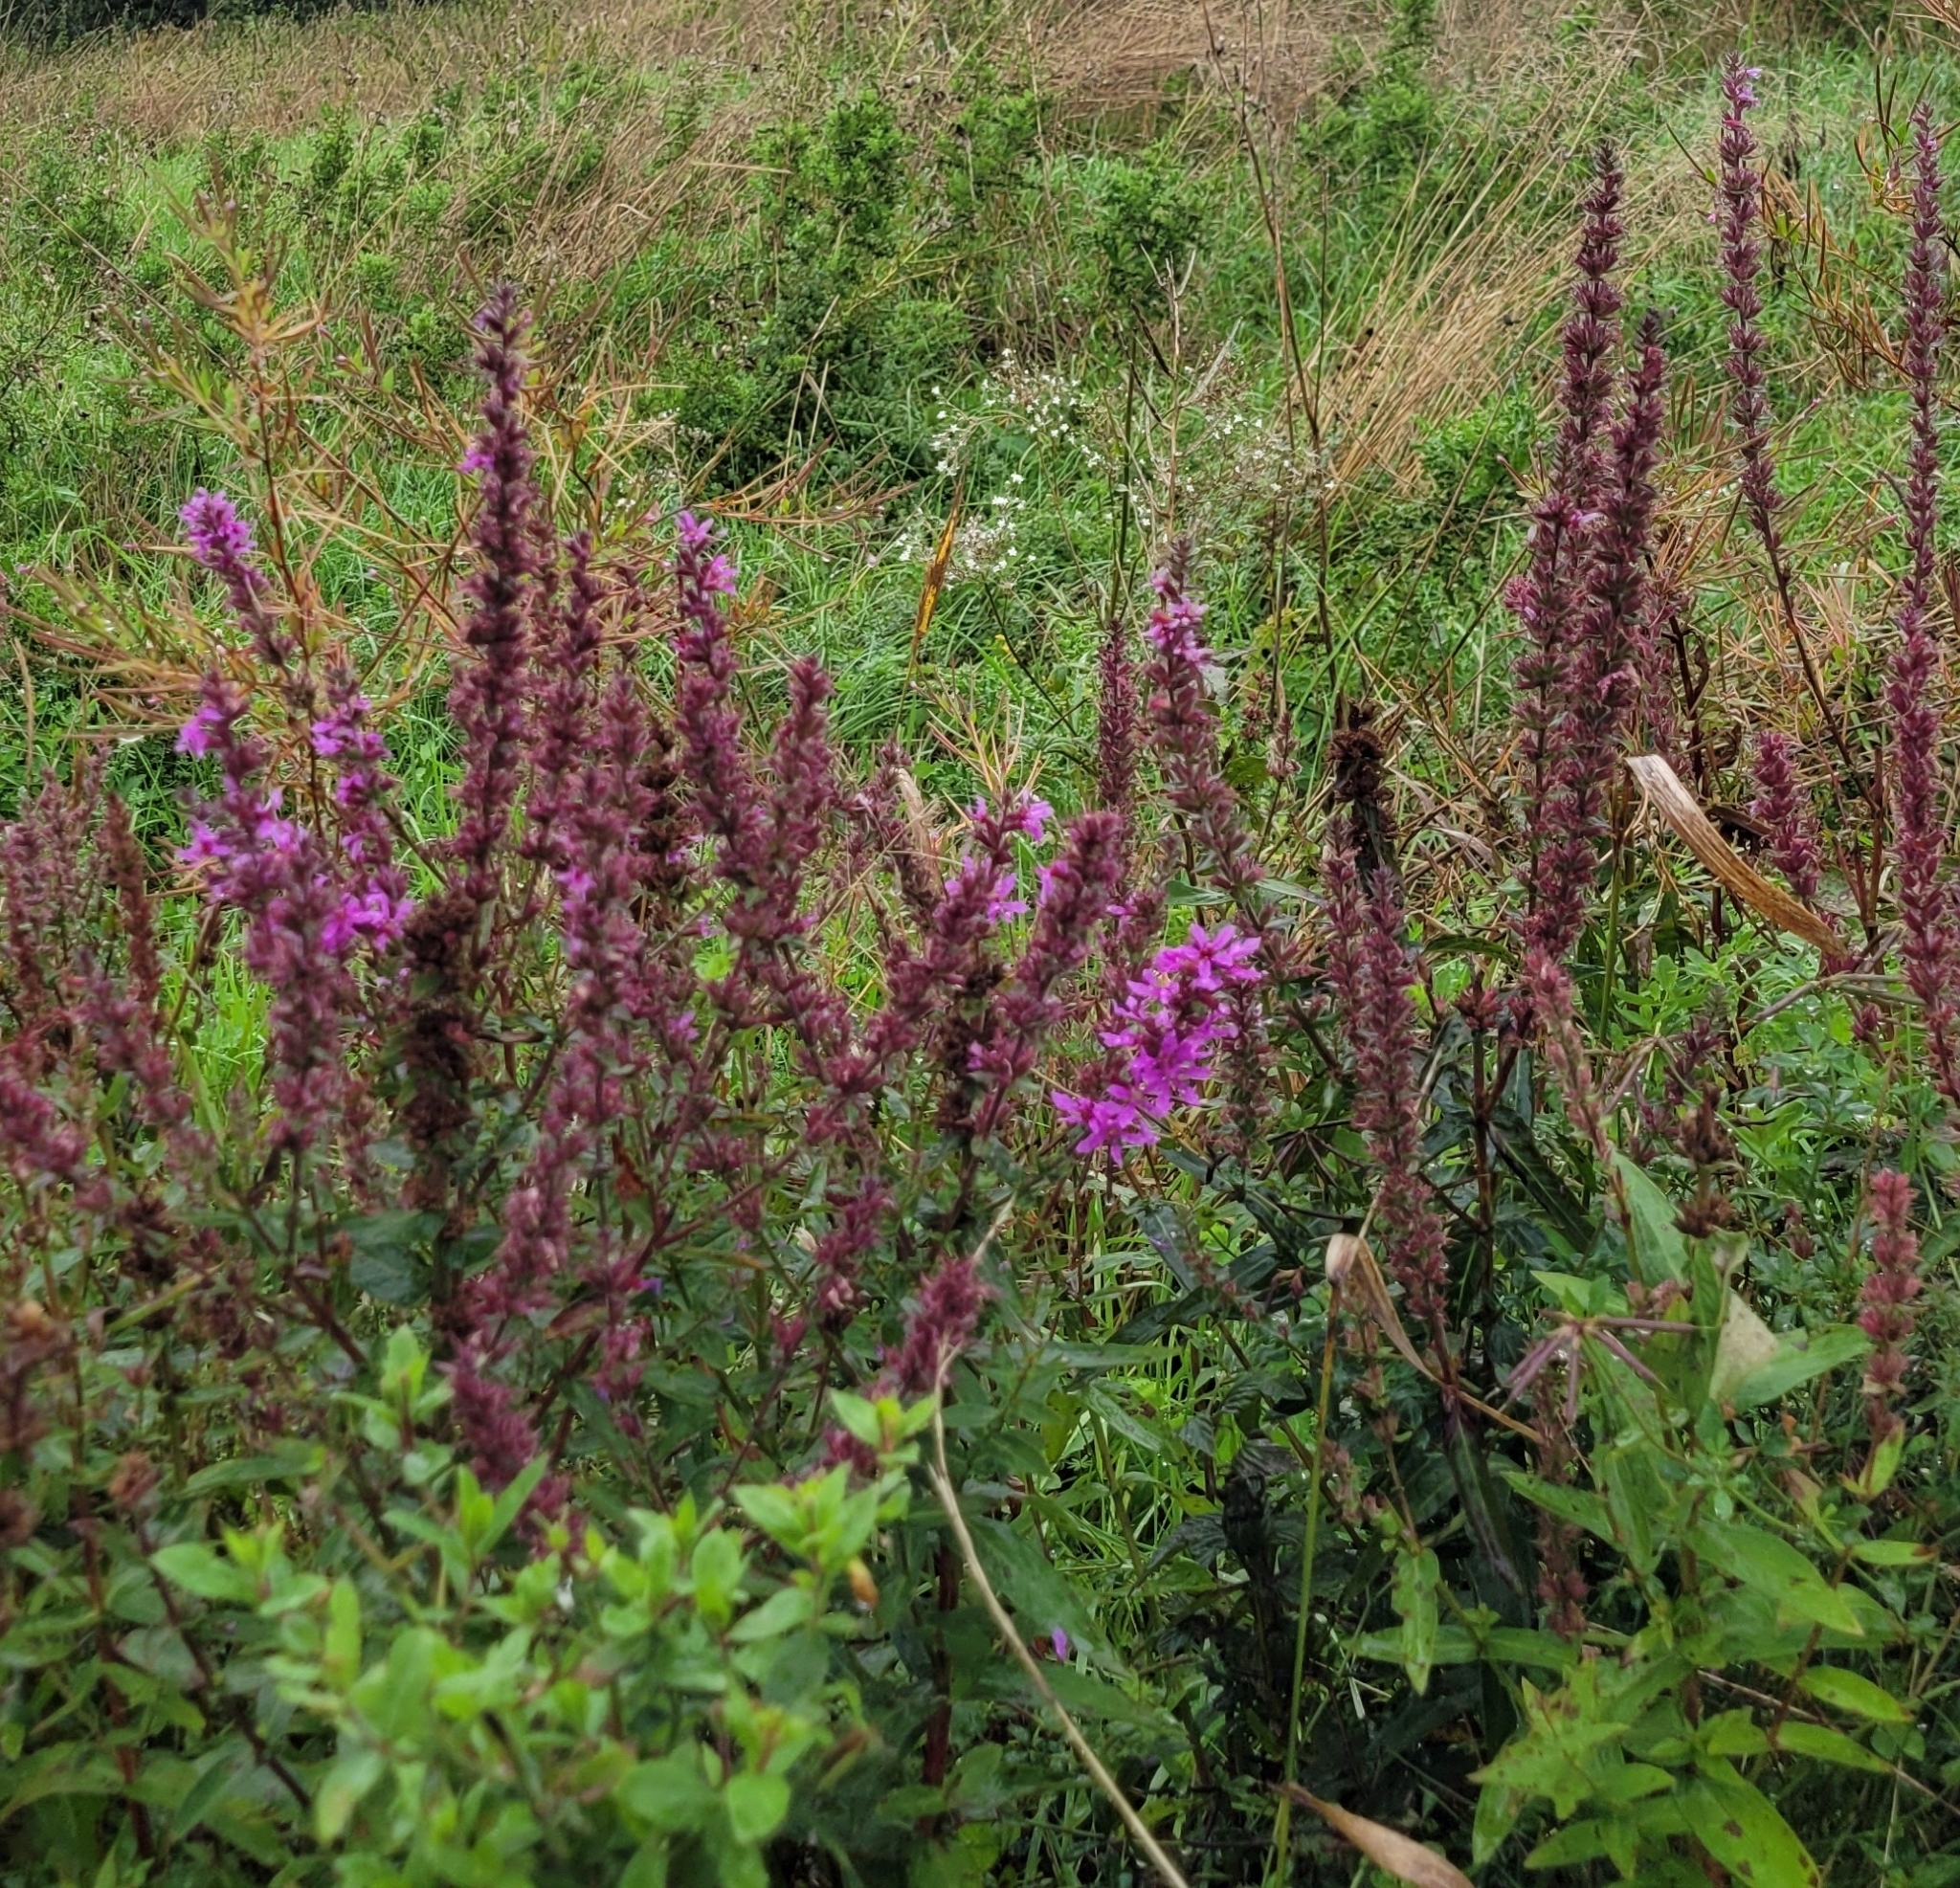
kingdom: Plantae
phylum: Tracheophyta
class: Magnoliopsida
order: Myrtales
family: Lythraceae
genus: Lythrum
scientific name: Lythrum salicaria
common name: Purple loosestrife
